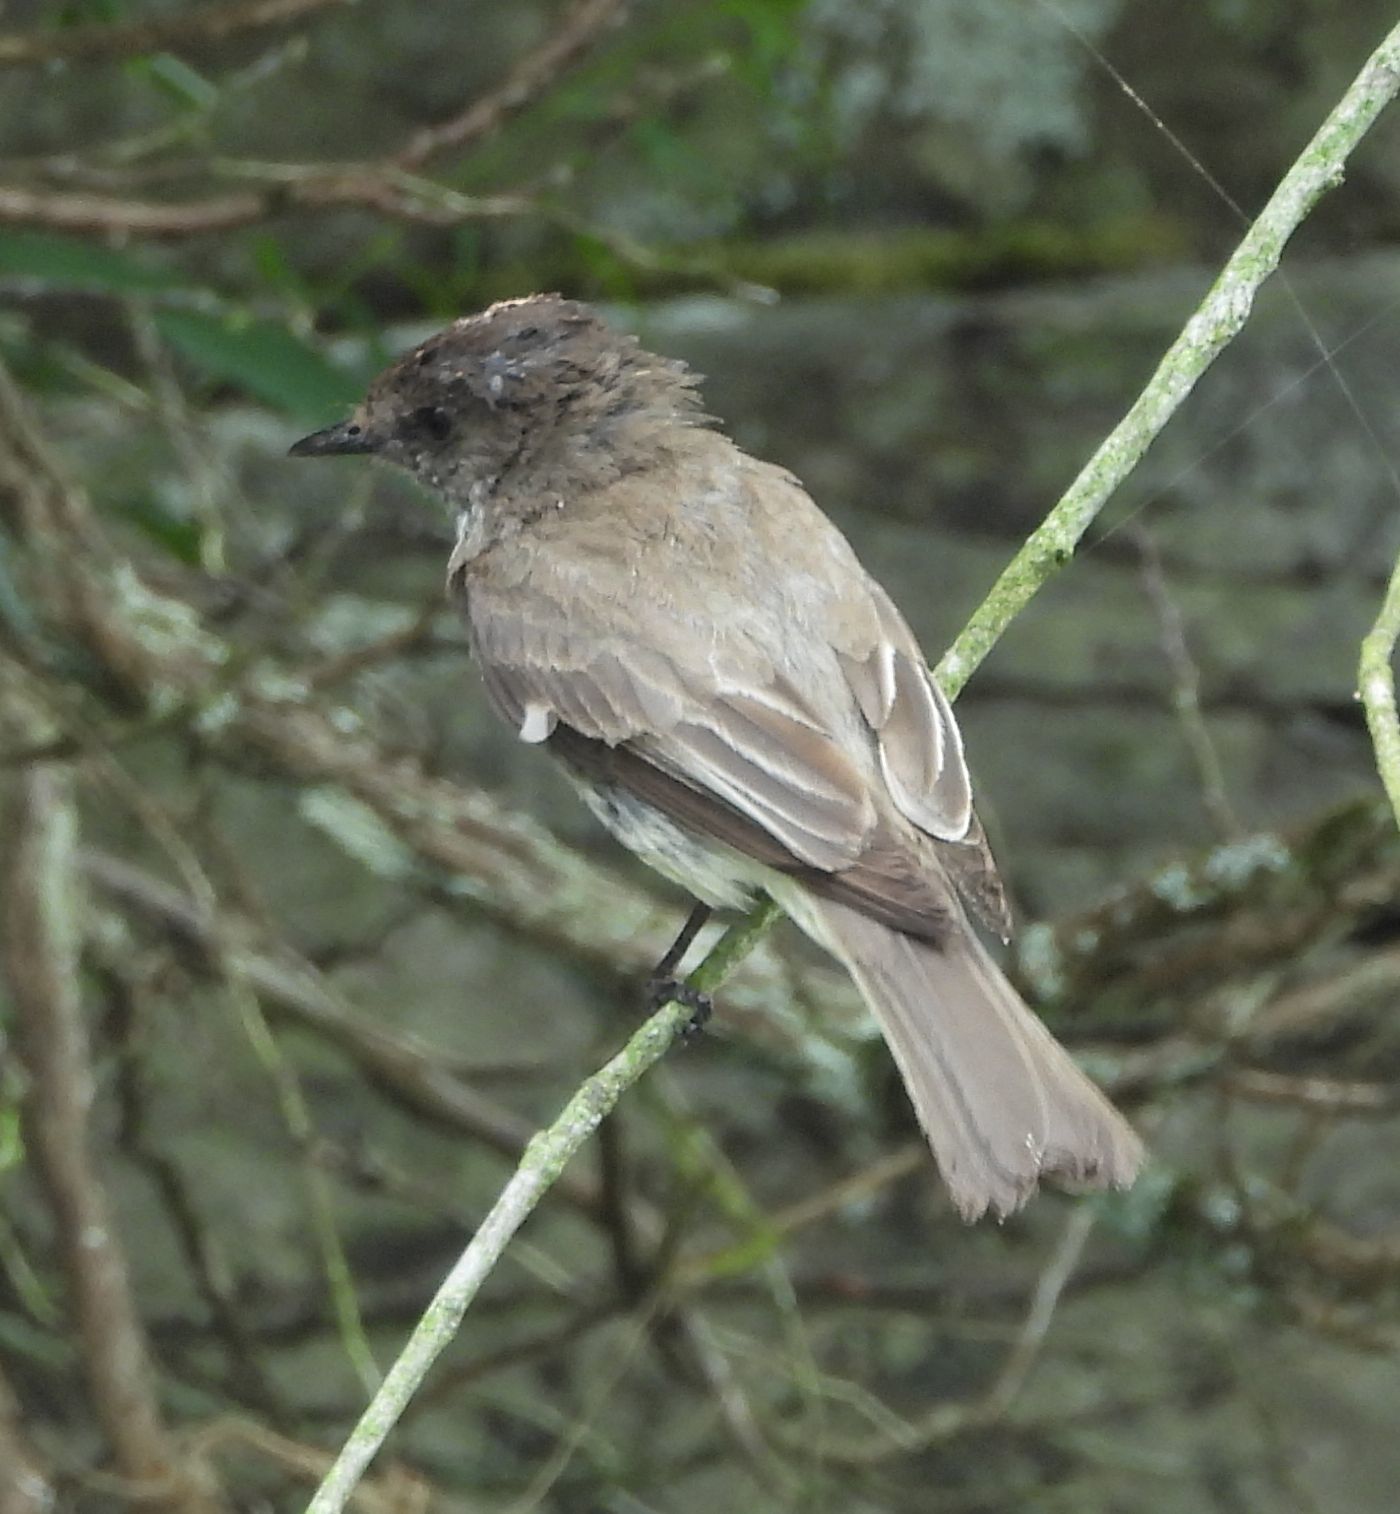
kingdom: Animalia
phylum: Chordata
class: Aves
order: Passeriformes
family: Tyrannidae
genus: Sayornis
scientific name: Sayornis phoebe
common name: Eastern phoebe
